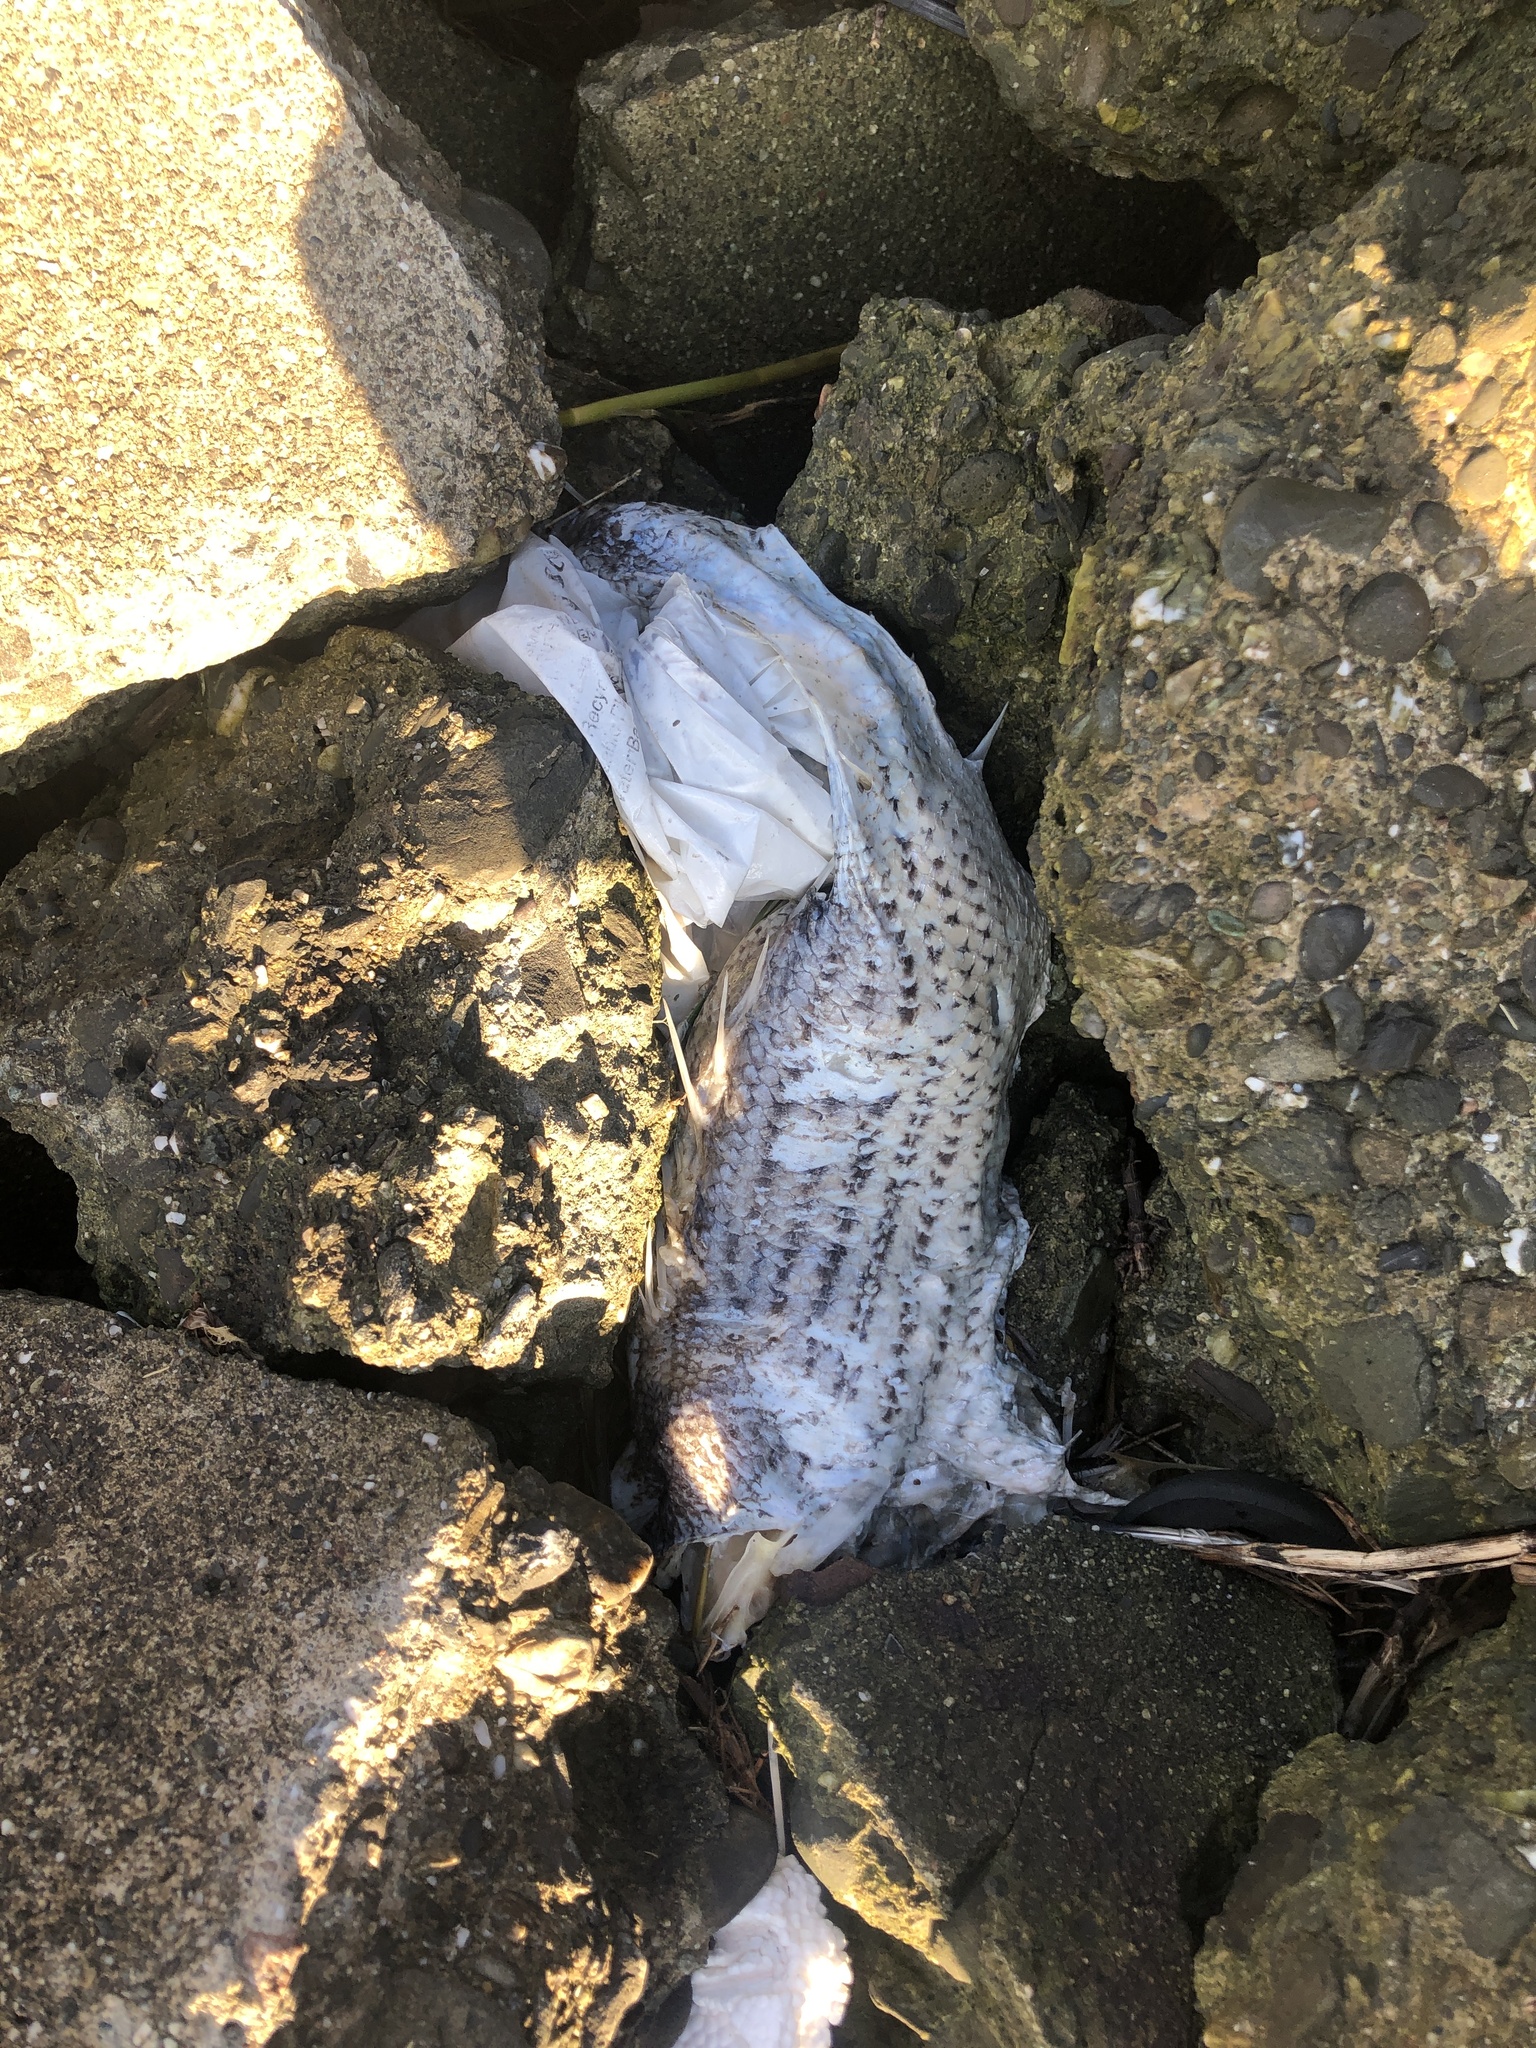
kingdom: Animalia
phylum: Chordata
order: Perciformes
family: Moronidae
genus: Morone
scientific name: Morone saxatilis
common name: Striped bass
